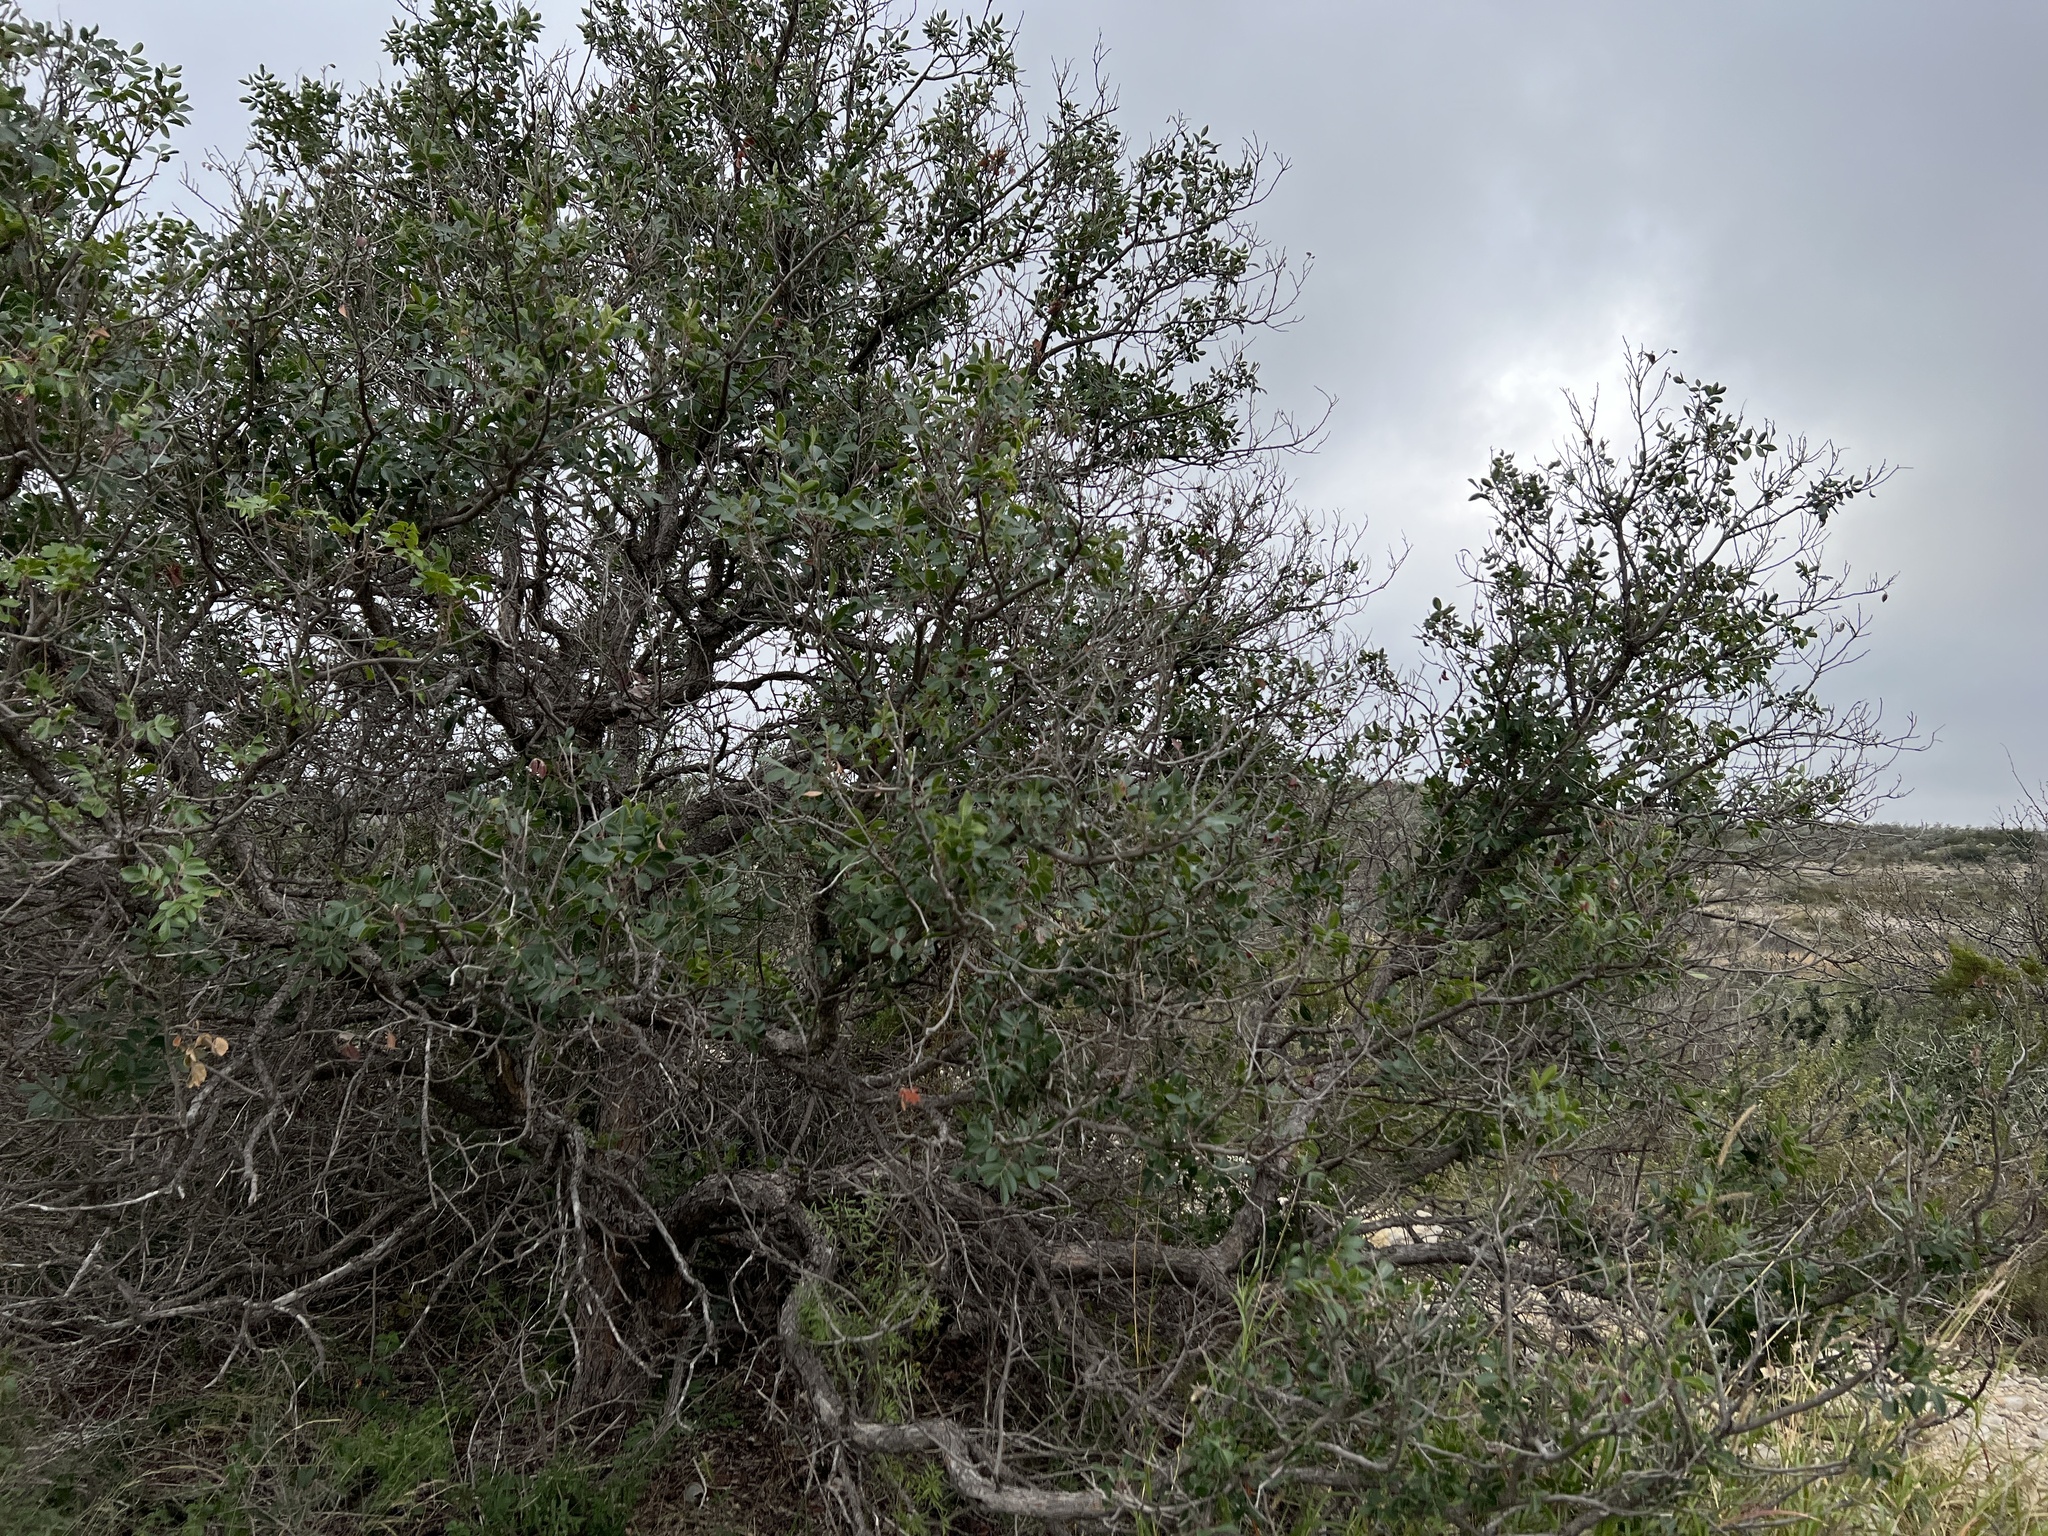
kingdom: Plantae
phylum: Tracheophyta
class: Magnoliopsida
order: Sapindales
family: Anacardiaceae
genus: Rhus
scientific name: Rhus virens
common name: Evergreen sumac
